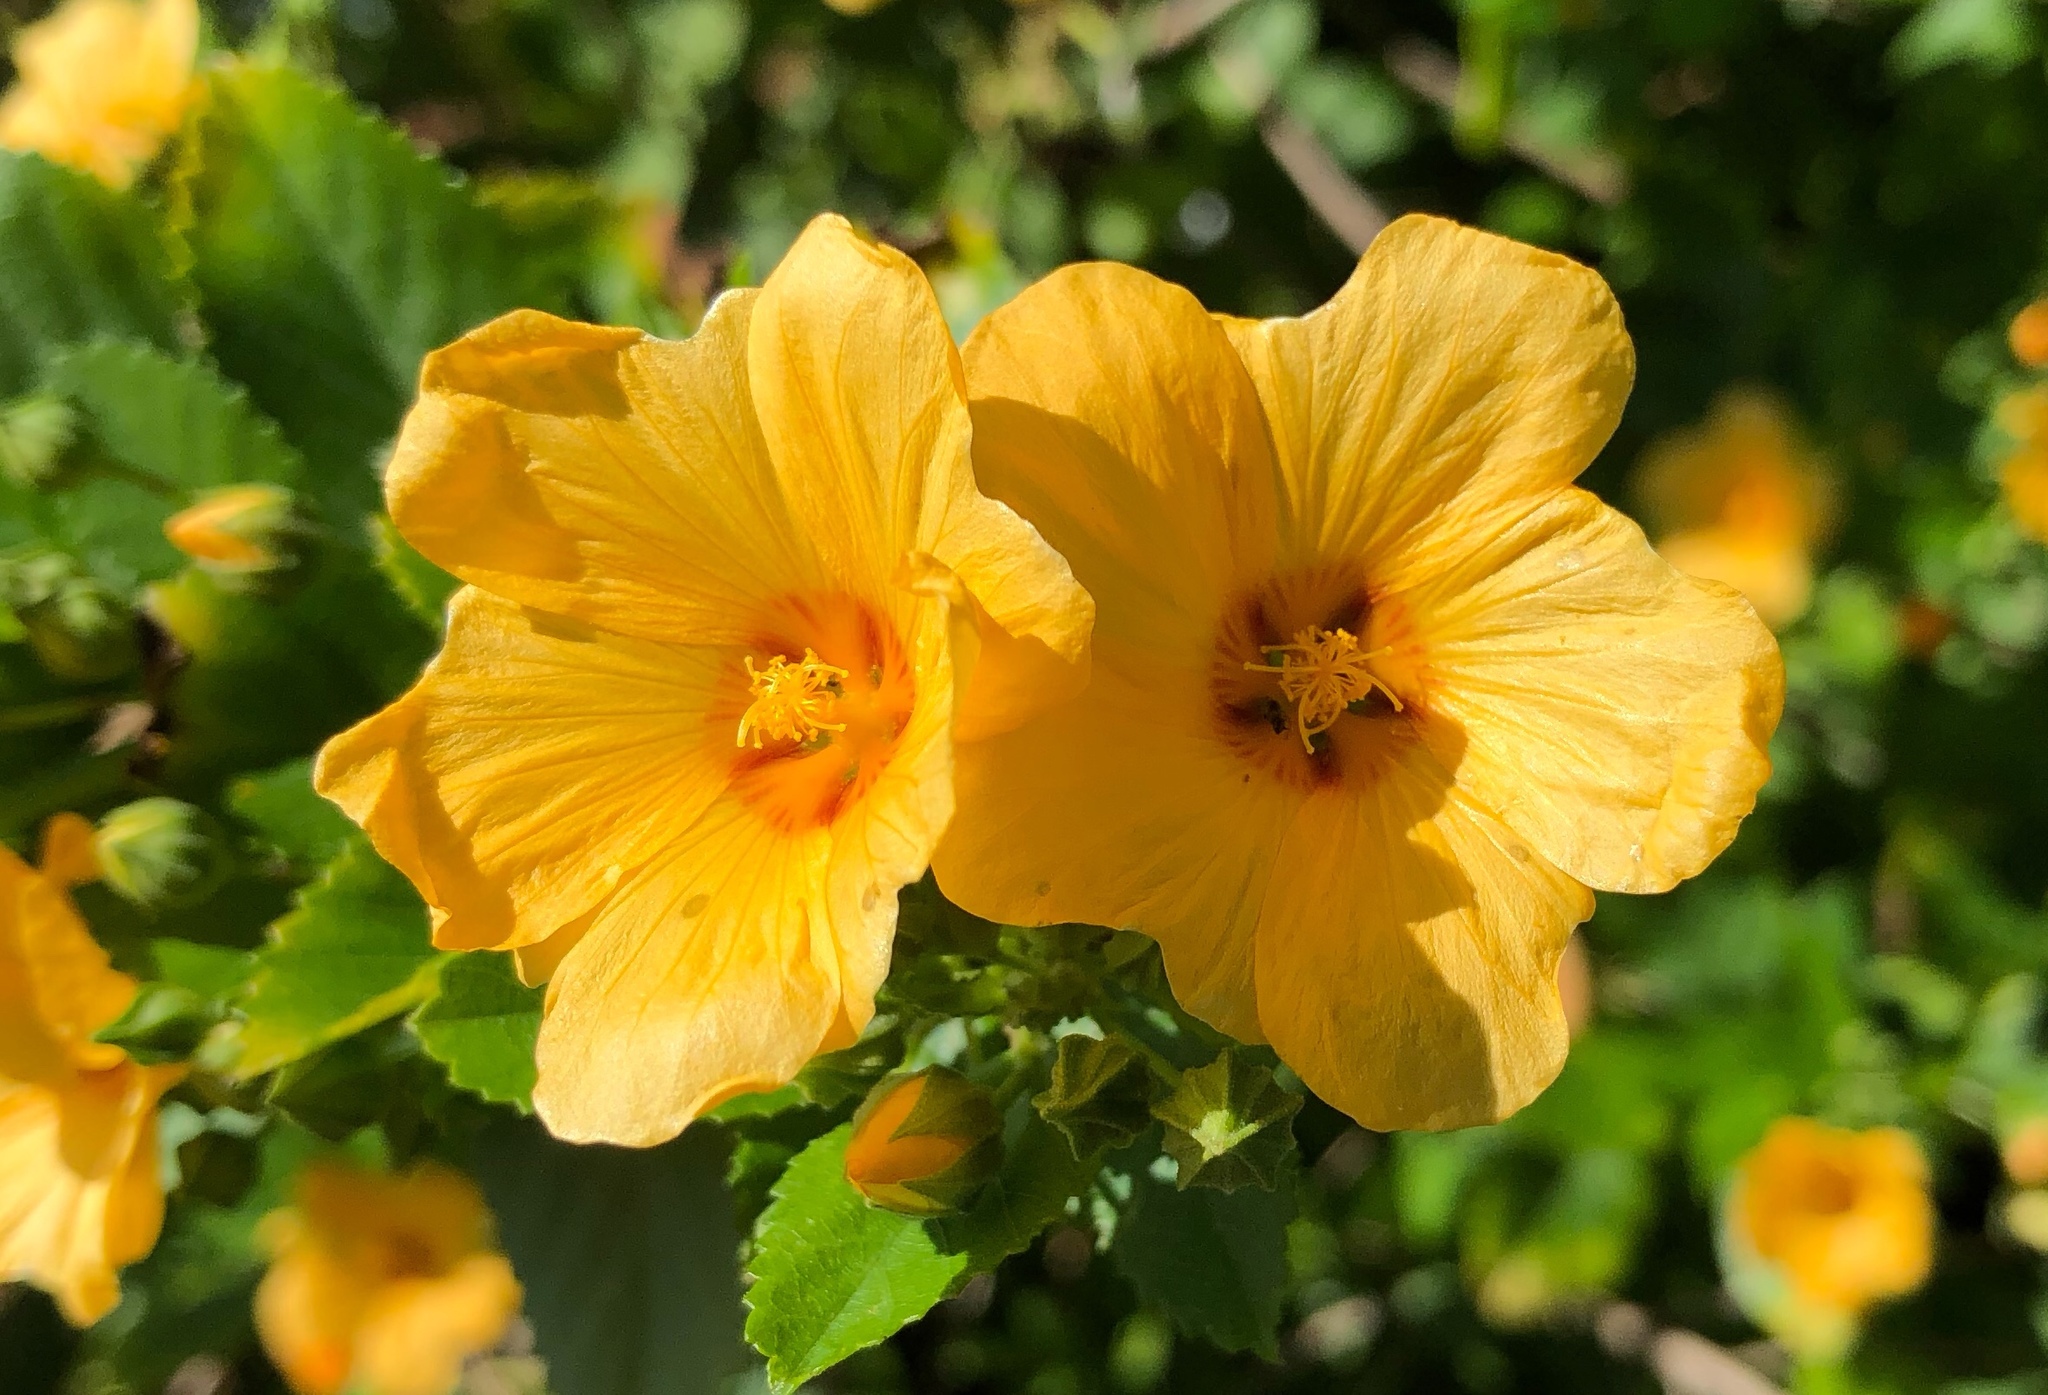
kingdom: Plantae
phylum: Tracheophyta
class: Magnoliopsida
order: Malvales
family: Malvaceae
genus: Sida
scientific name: Sida fallax
